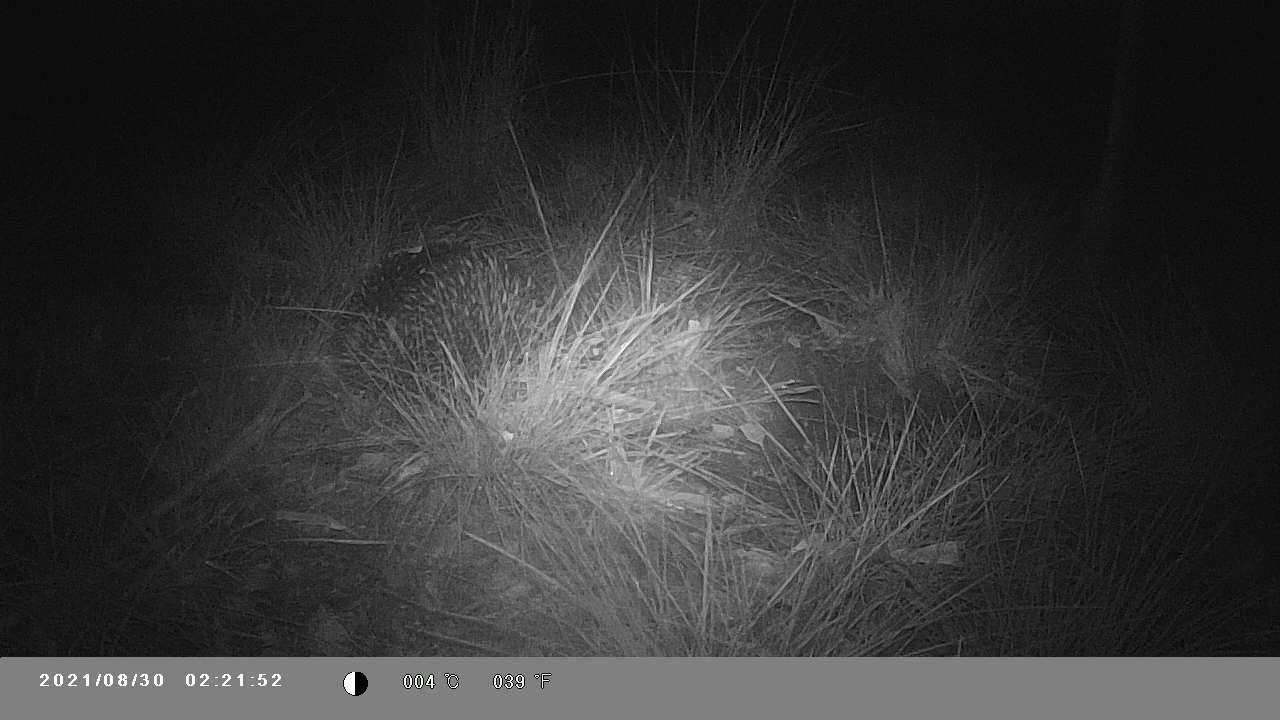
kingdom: Animalia
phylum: Chordata
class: Mammalia
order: Monotremata
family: Tachyglossidae
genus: Tachyglossus
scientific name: Tachyglossus aculeatus
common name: Short-beaked echidna
